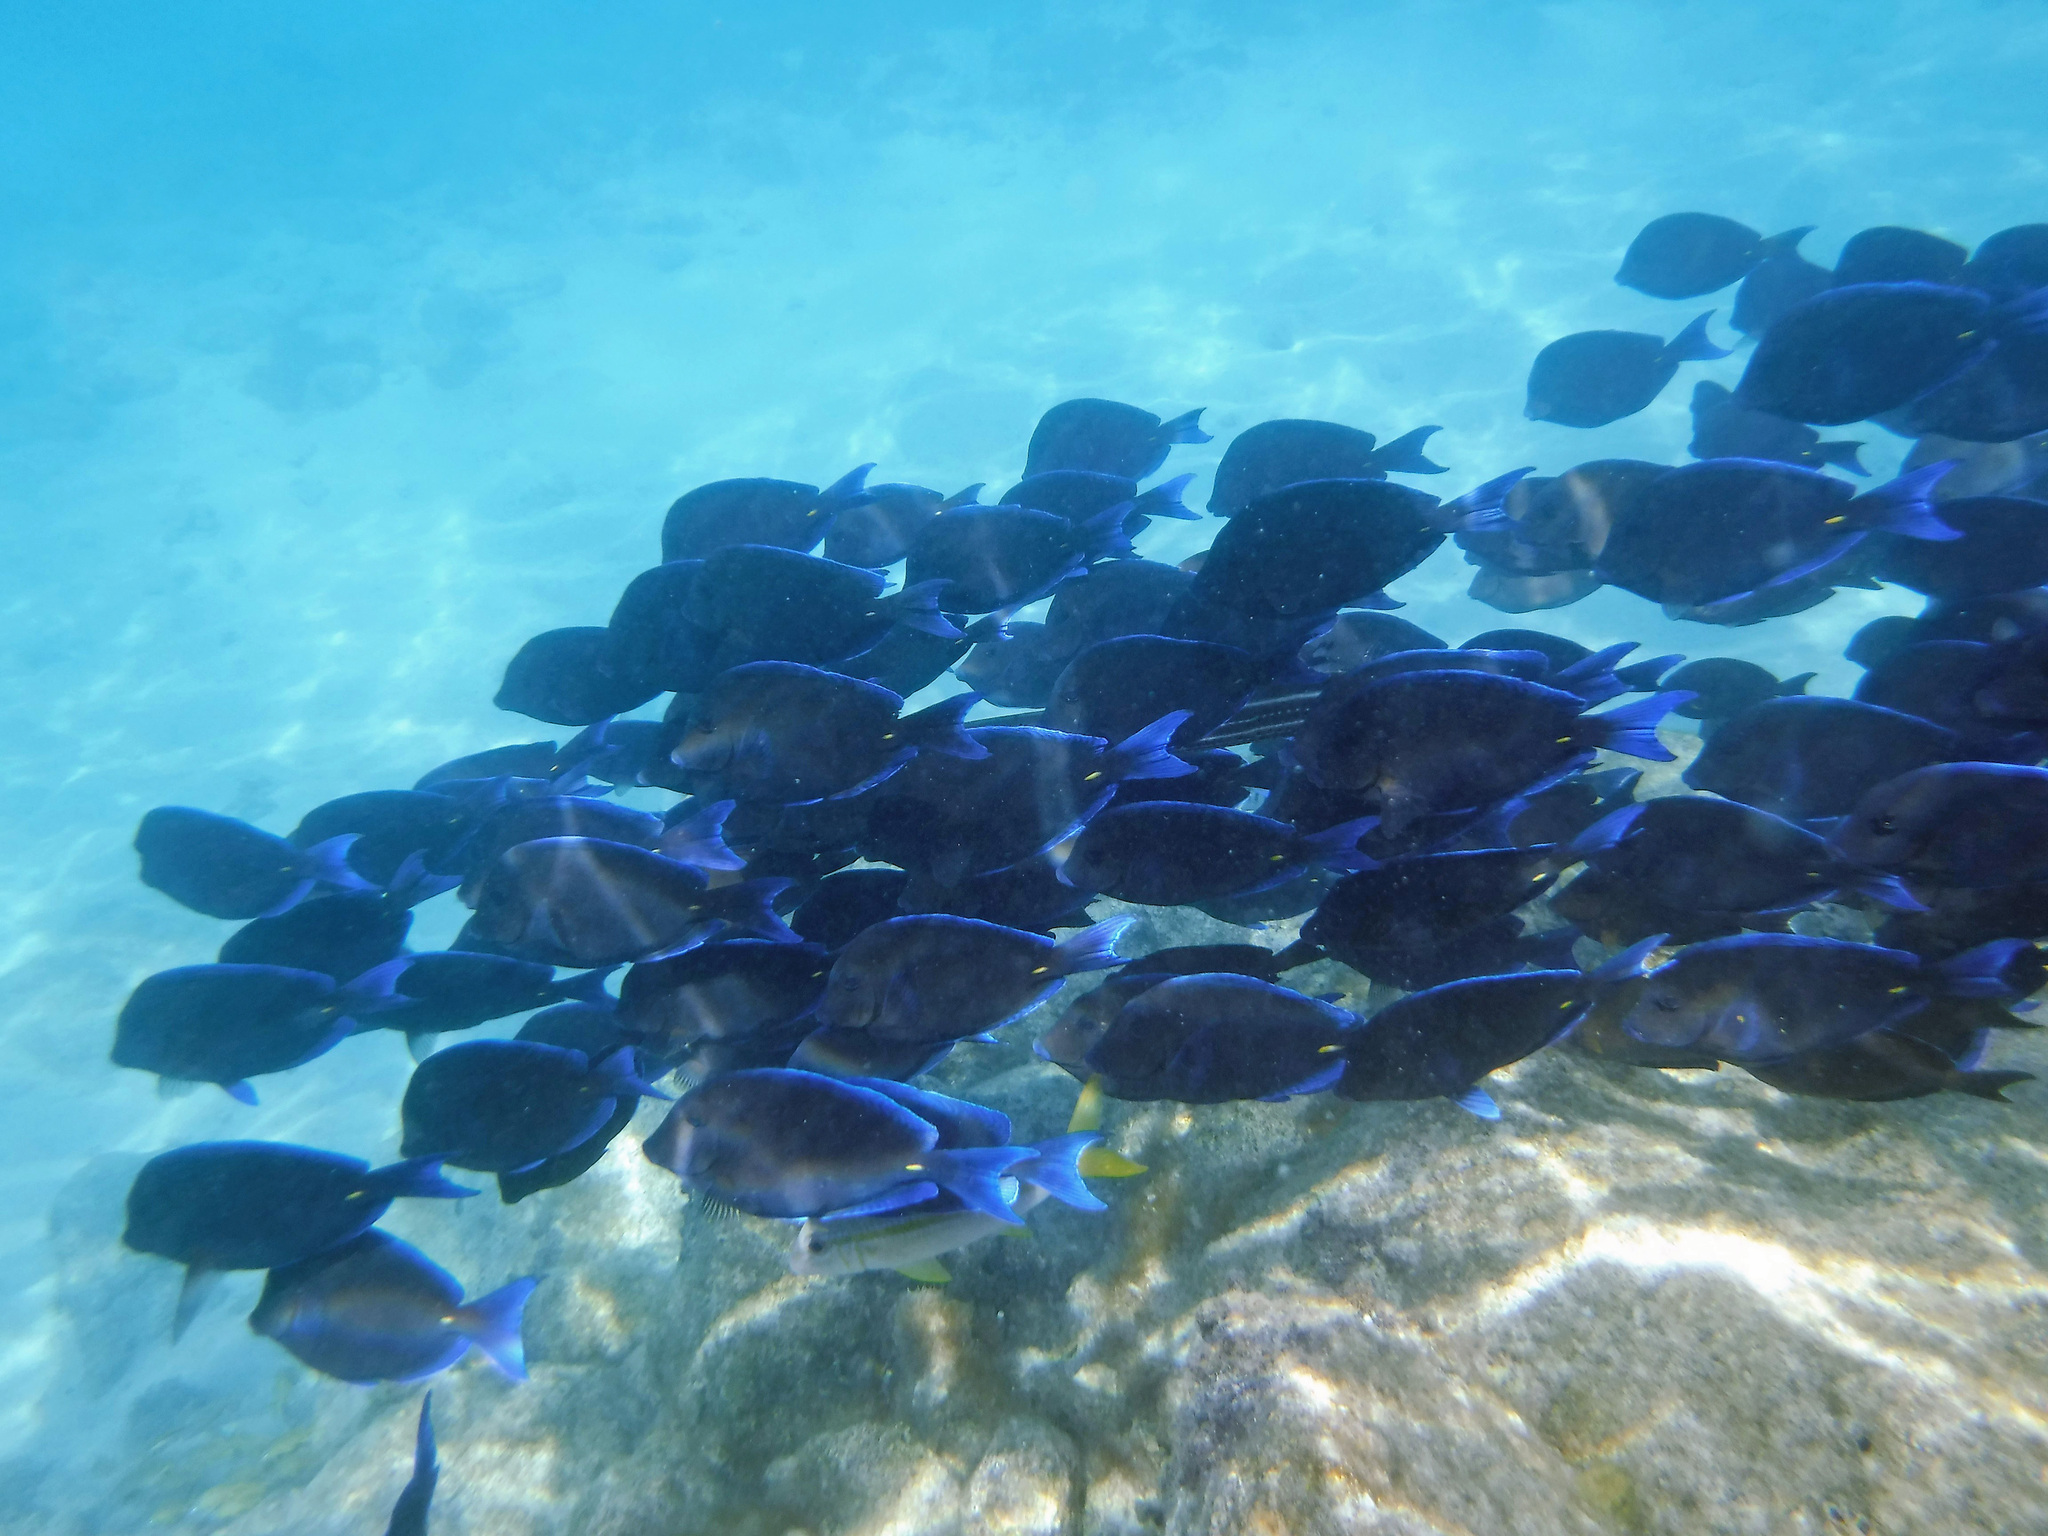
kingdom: Animalia
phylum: Chordata
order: Perciformes
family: Acanthuridae
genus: Acanthurus
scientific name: Acanthurus coeruleus
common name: Blue tang
